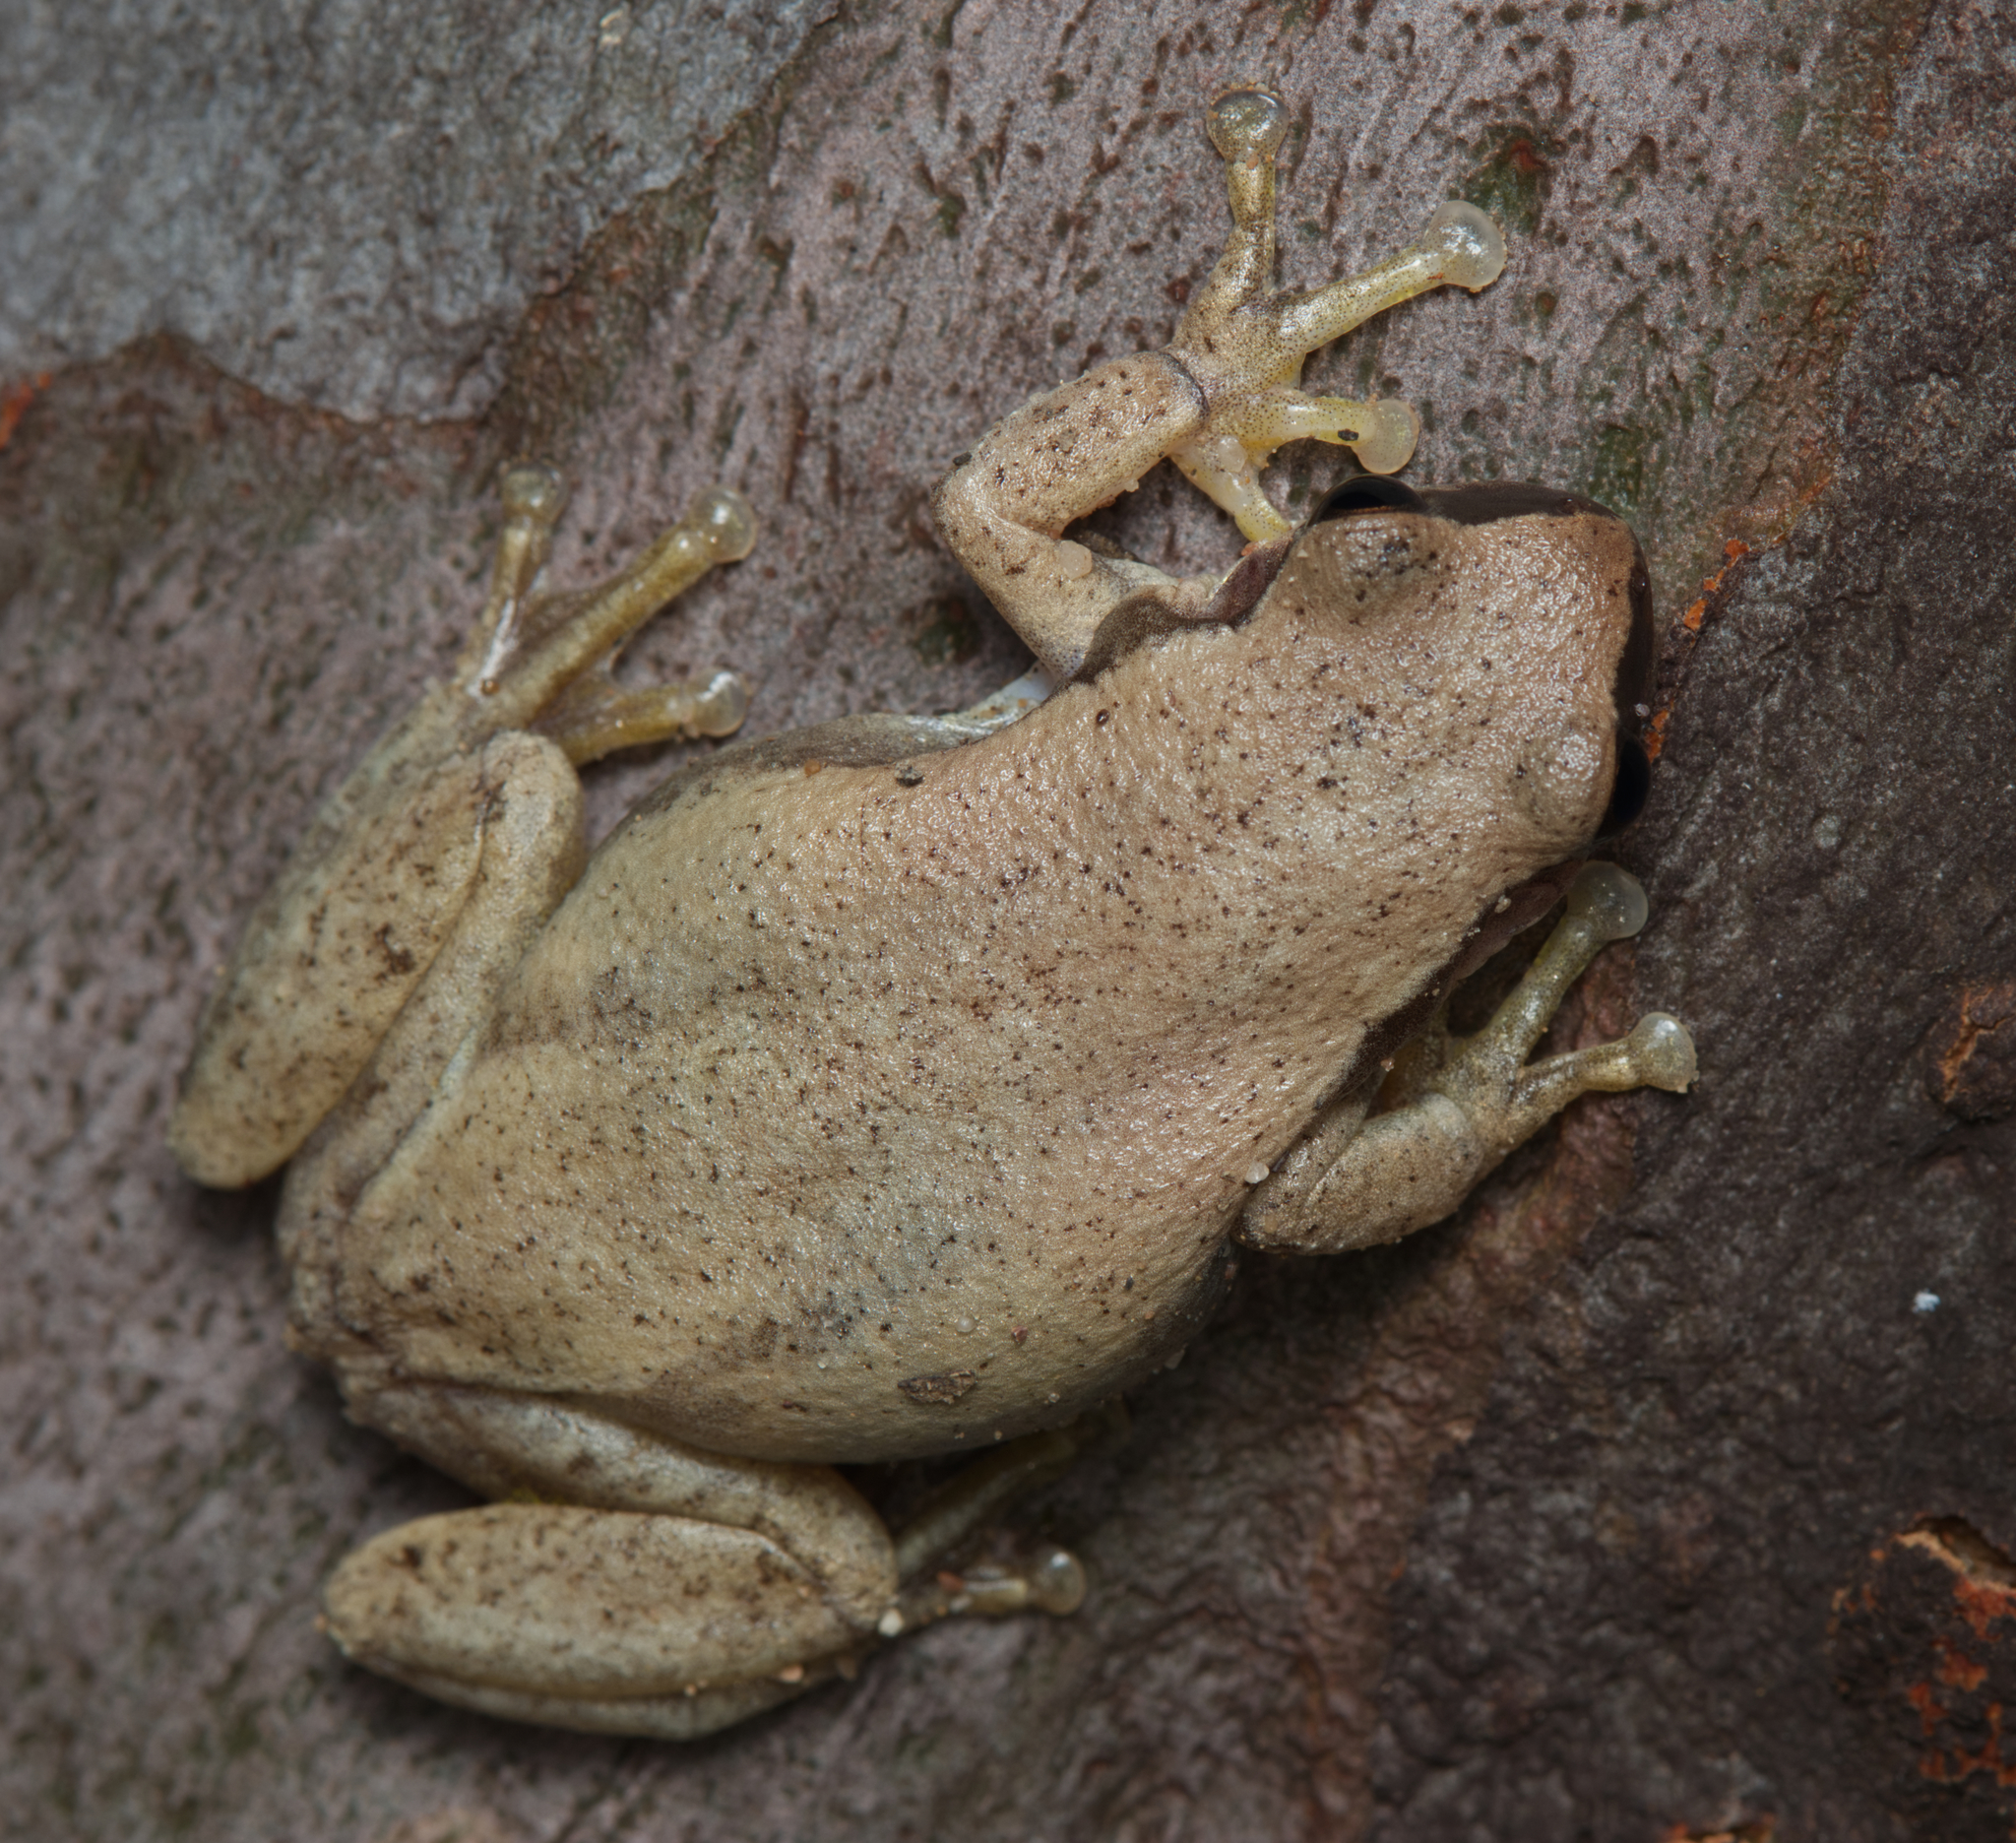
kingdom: Animalia
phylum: Chordata
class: Amphibia
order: Anura
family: Pelodryadidae
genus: Litoria
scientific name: Litoria rubella
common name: Desert tree frog
